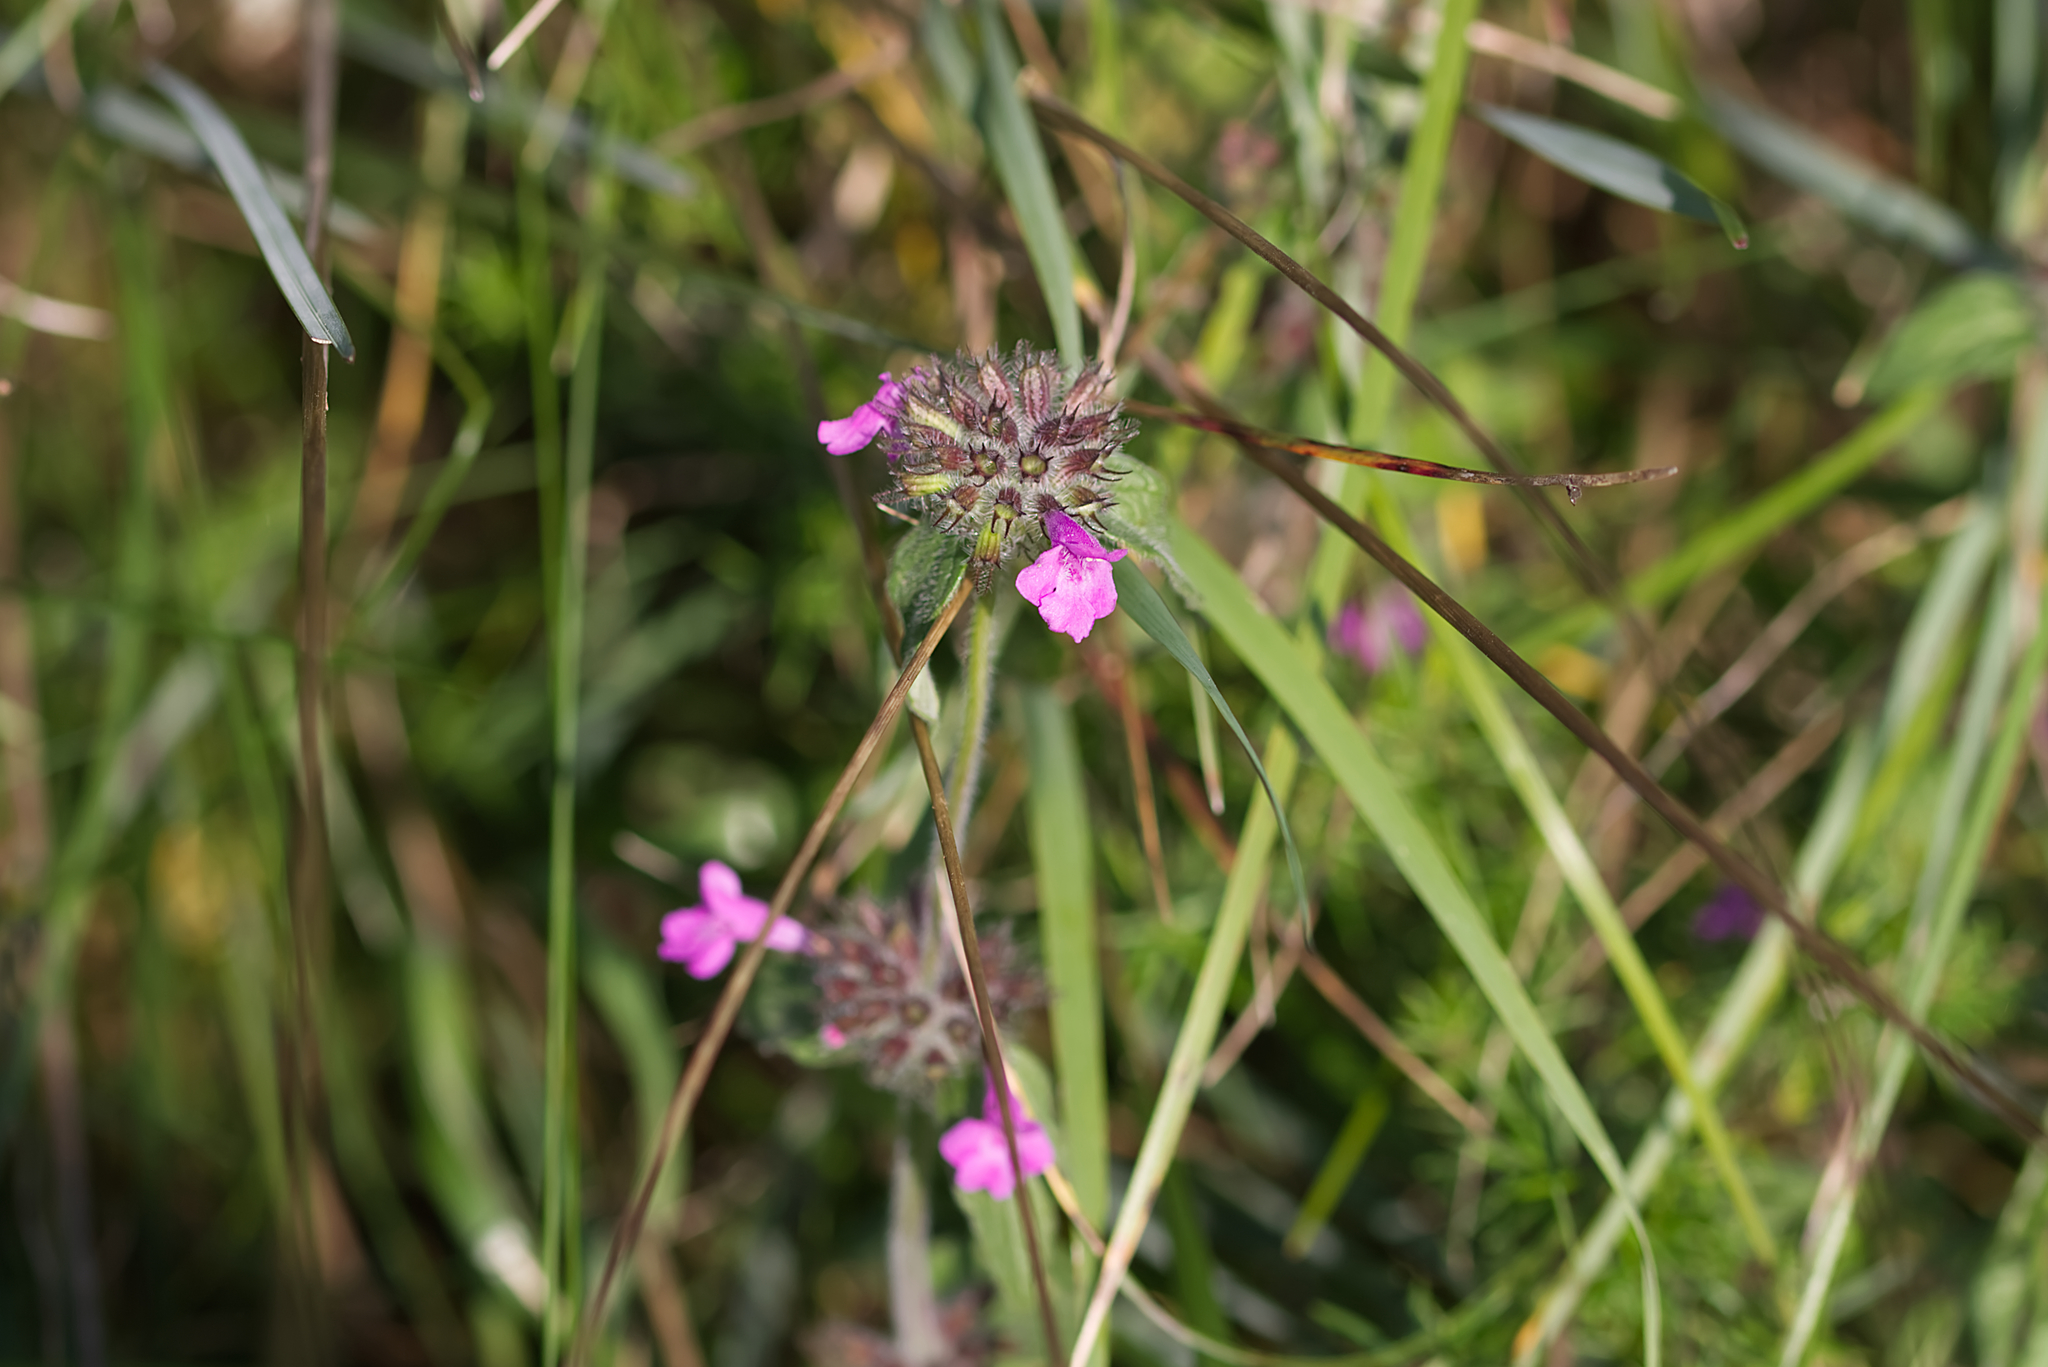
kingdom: Plantae
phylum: Tracheophyta
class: Magnoliopsida
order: Lamiales
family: Lamiaceae
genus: Clinopodium
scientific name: Clinopodium vulgare
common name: Wild basil
